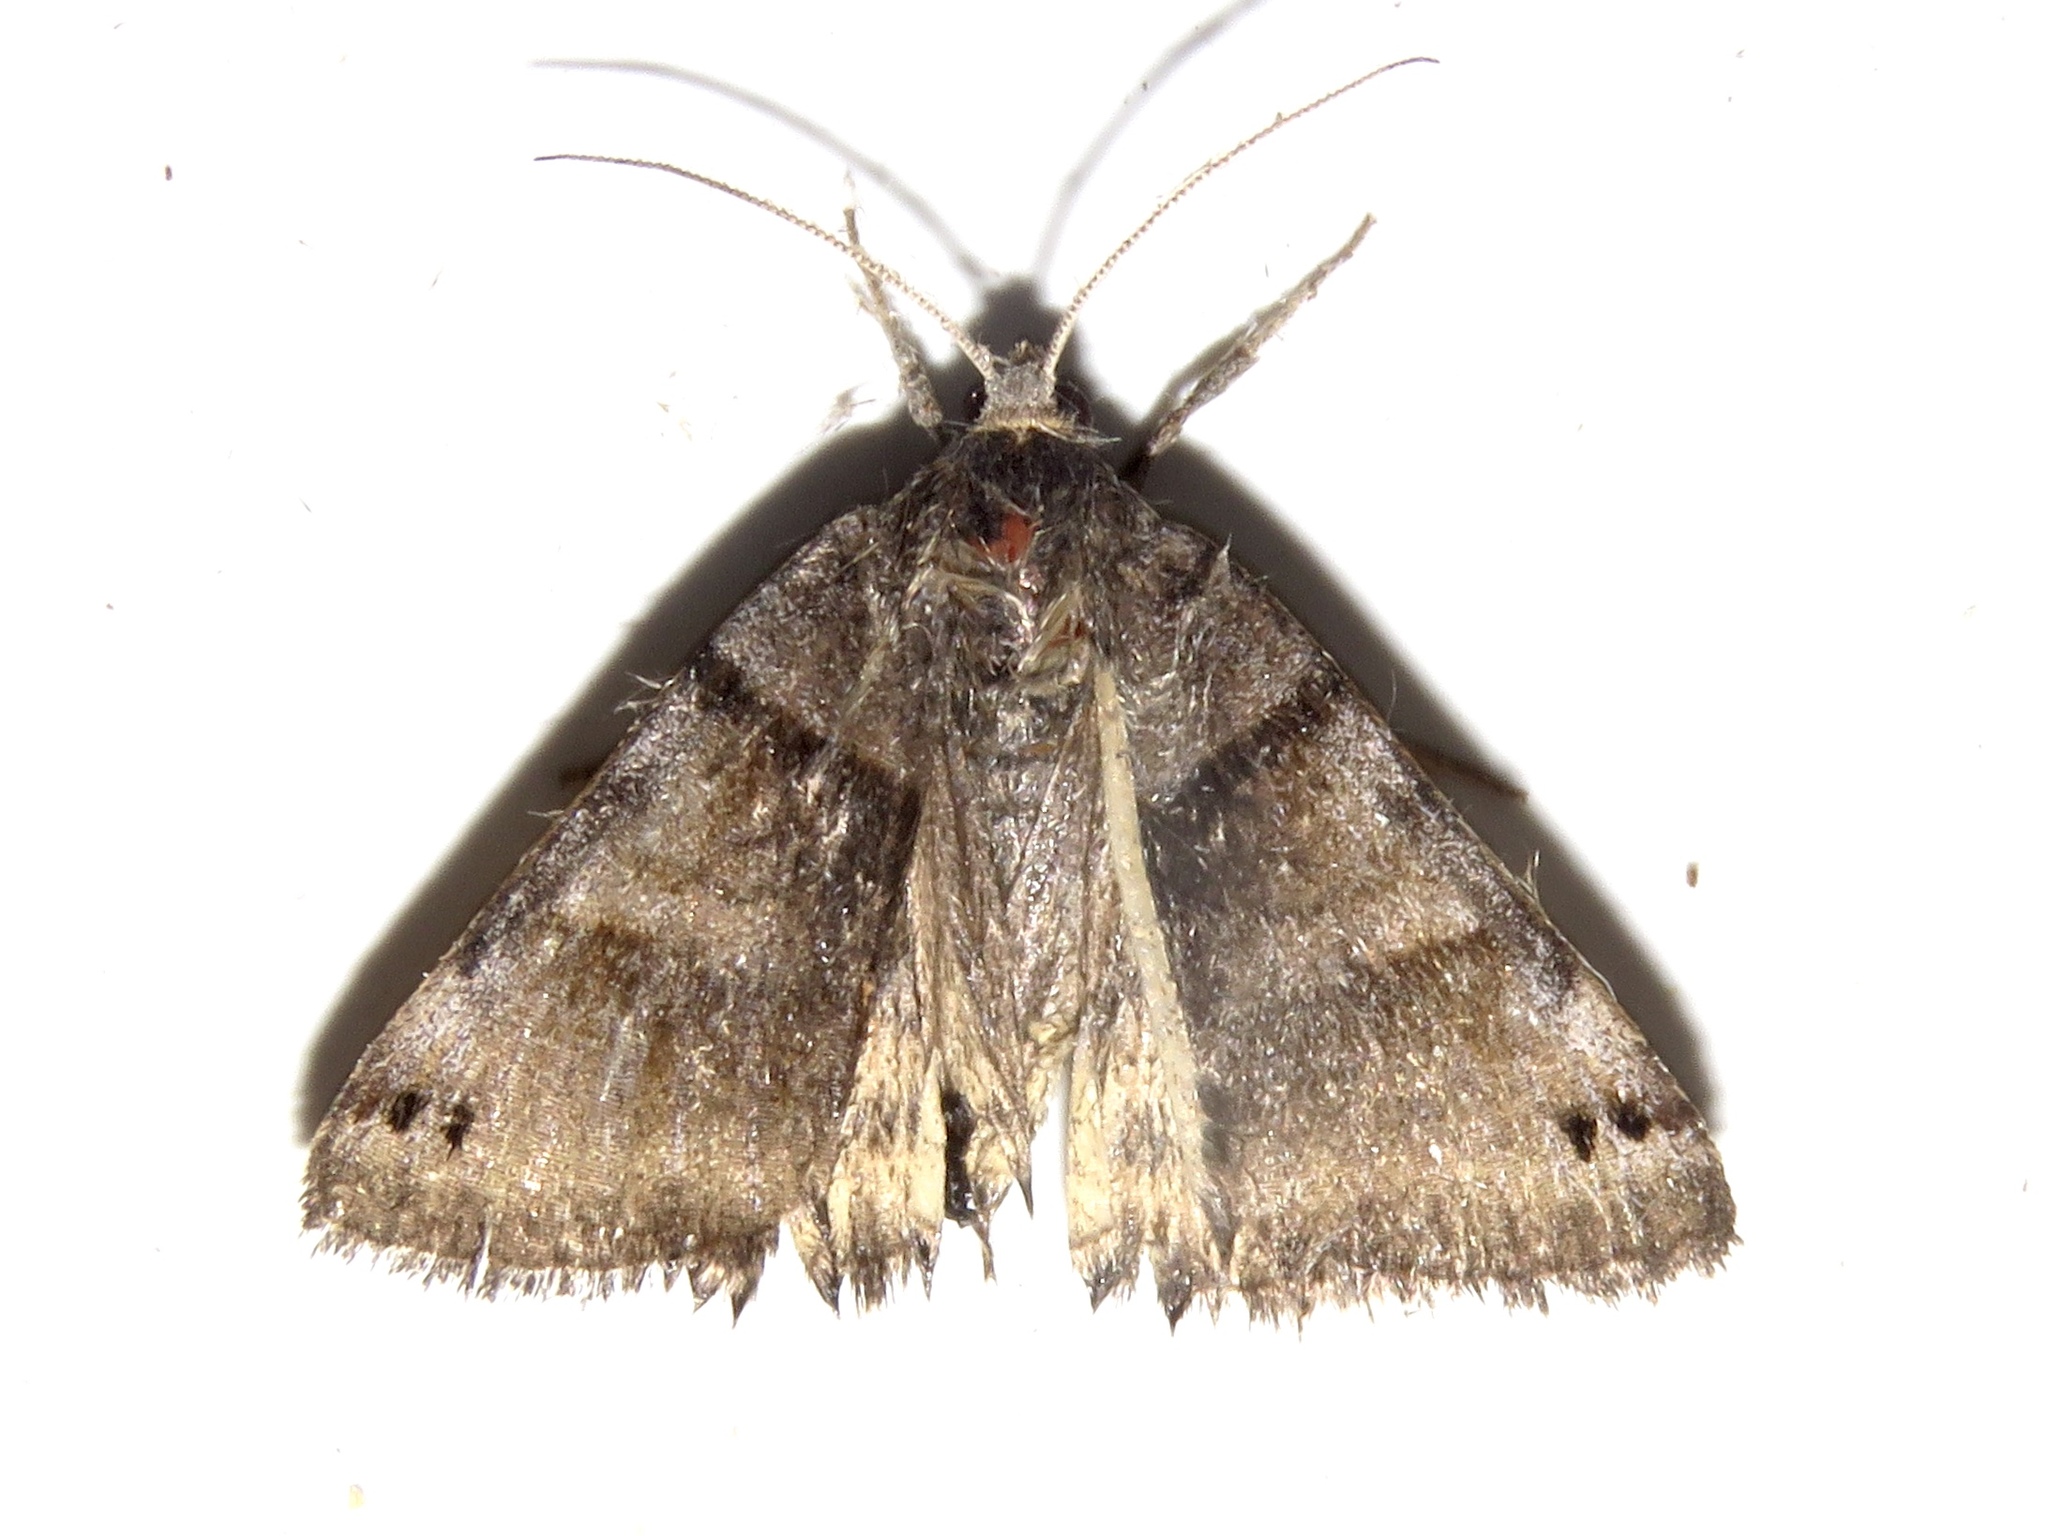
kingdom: Animalia
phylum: Arthropoda
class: Insecta
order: Lepidoptera
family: Erebidae
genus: Caenurgina
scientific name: Caenurgina crassiuscula
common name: Double-barred
